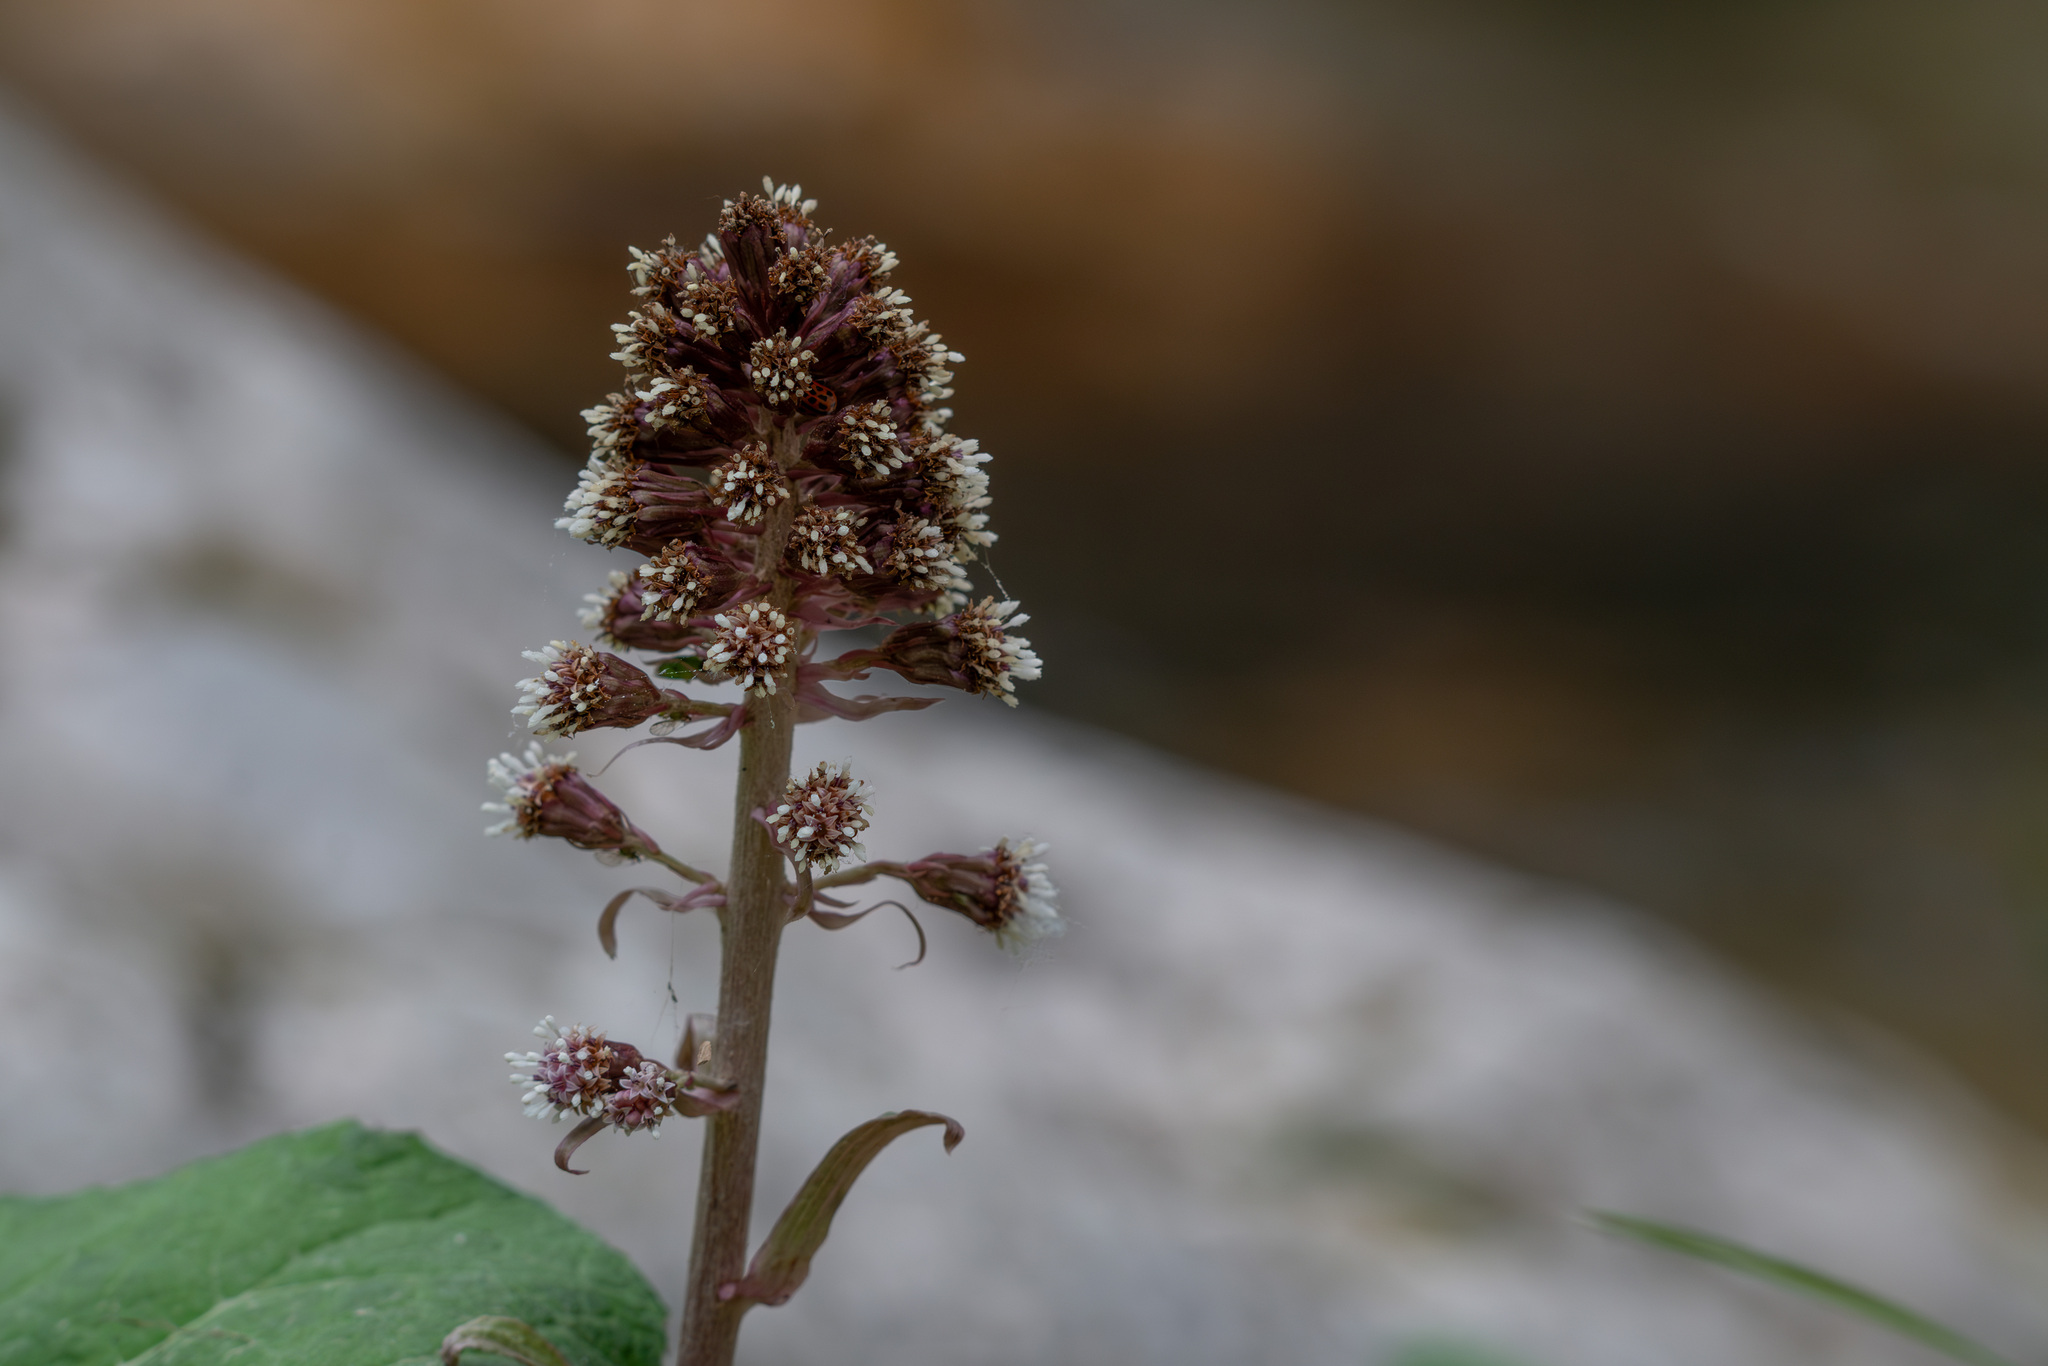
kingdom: Plantae
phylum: Tracheophyta
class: Magnoliopsida
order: Asterales
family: Asteraceae
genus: Petasites
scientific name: Petasites hybridus
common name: Butterbur
